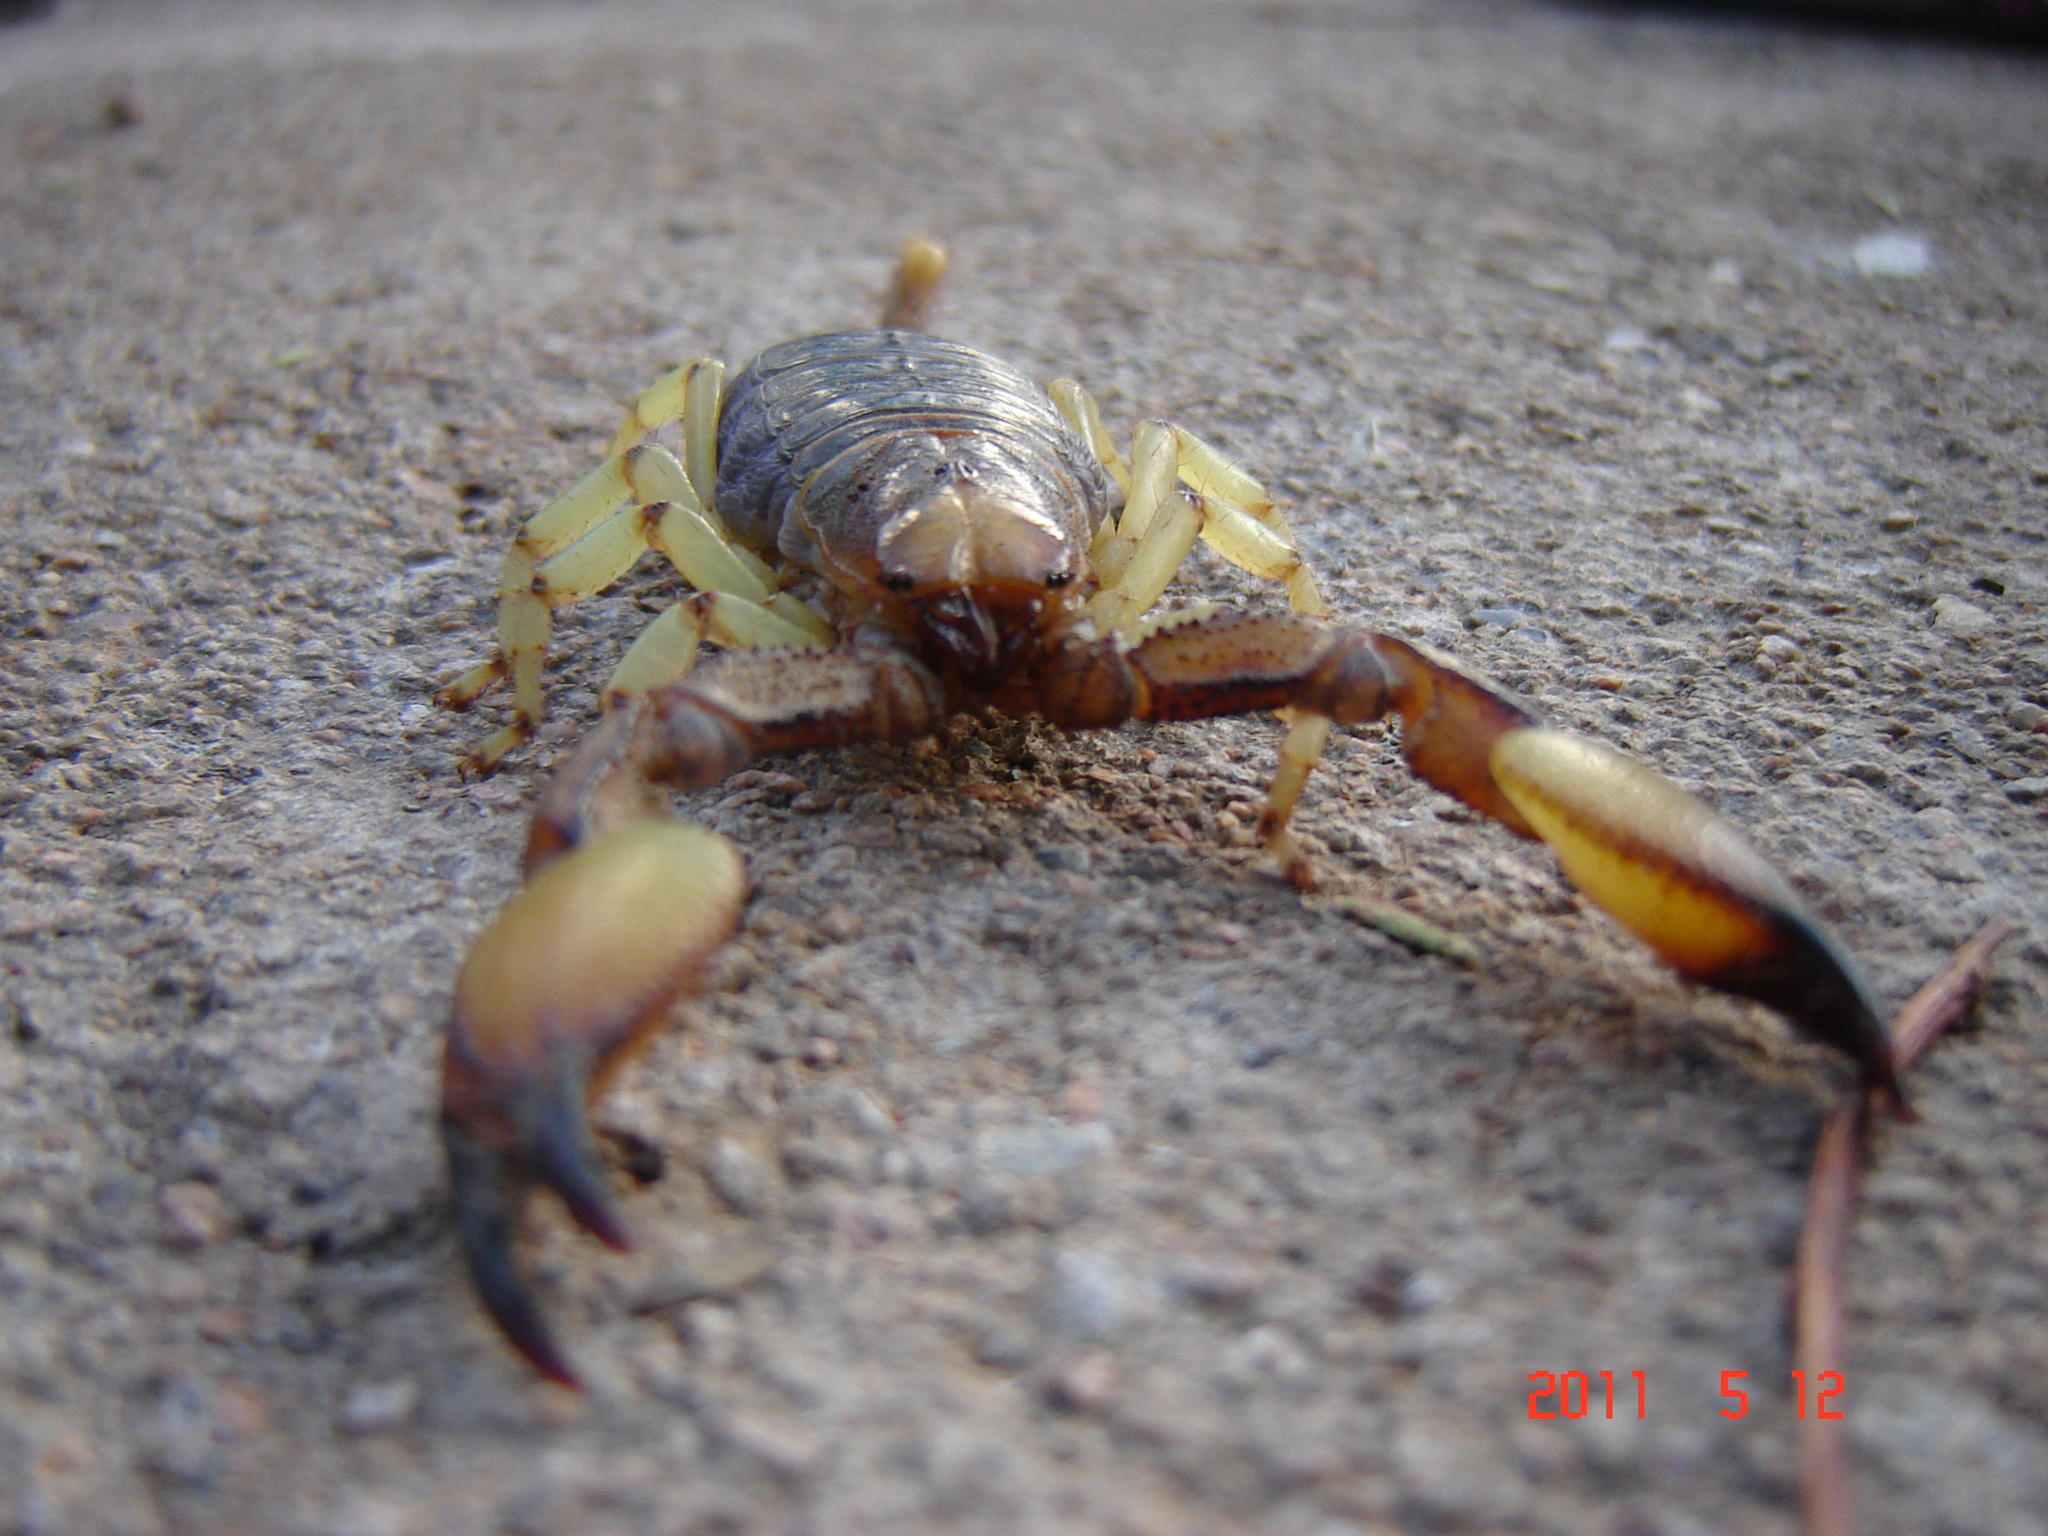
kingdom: Animalia
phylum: Arthropoda
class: Arachnida
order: Scorpiones
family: Scorpionidae
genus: Opistophthalmus
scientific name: Opistophthalmus carinatus
